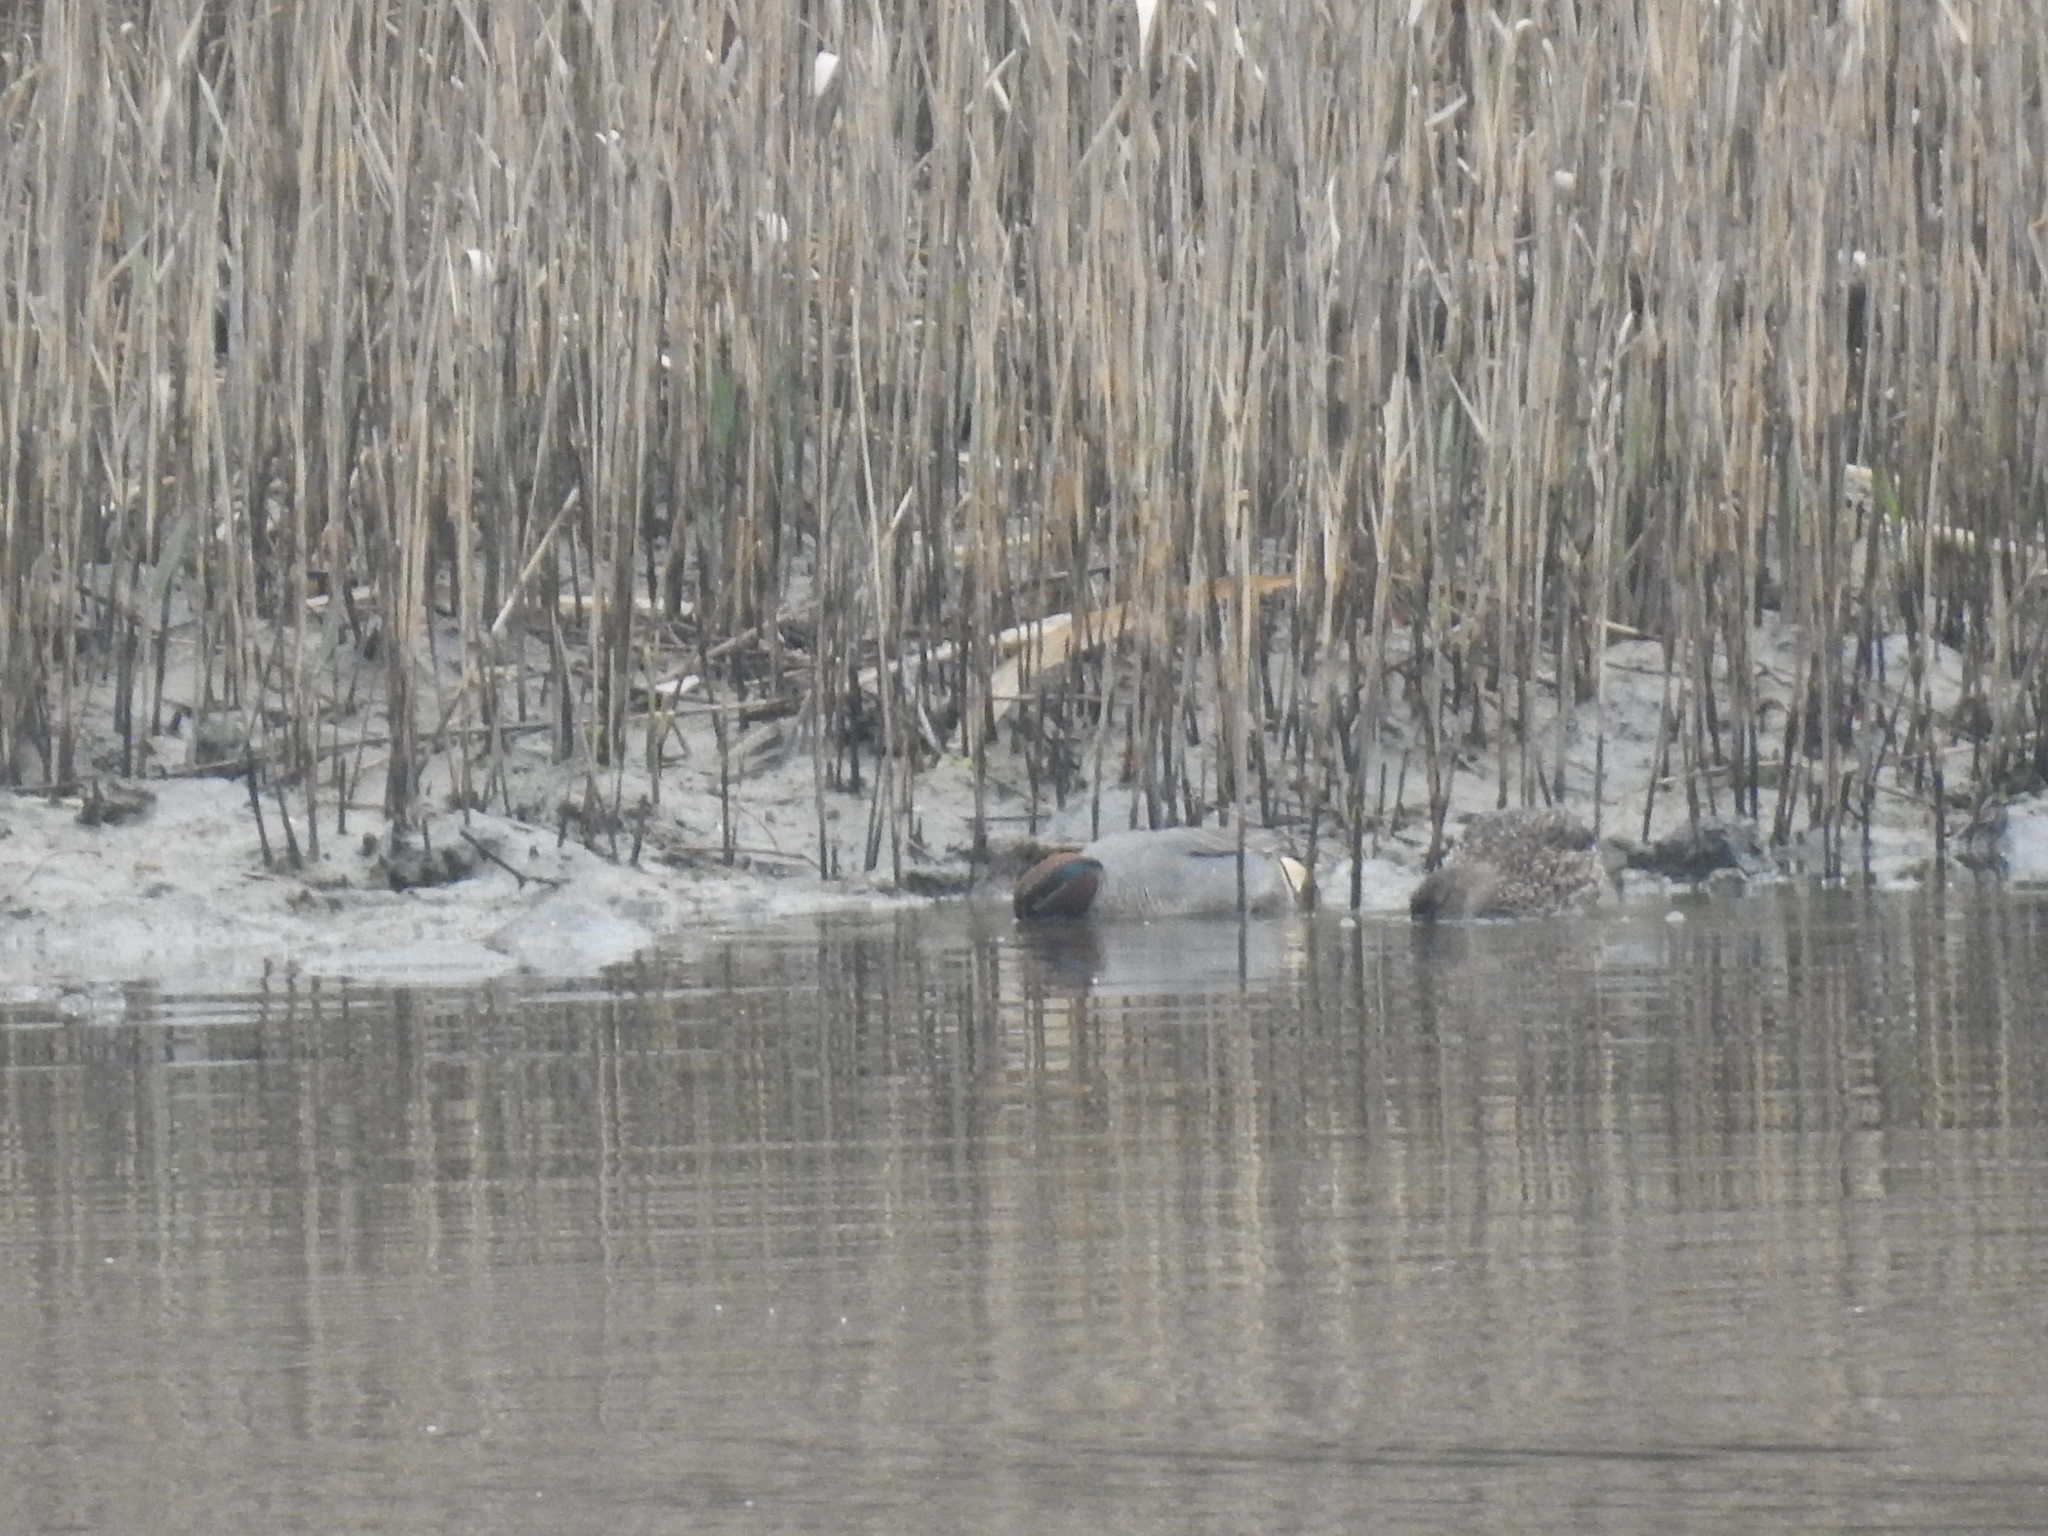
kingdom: Animalia
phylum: Chordata
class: Aves
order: Anseriformes
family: Anatidae
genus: Anas
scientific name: Anas crecca
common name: Eurasian teal
